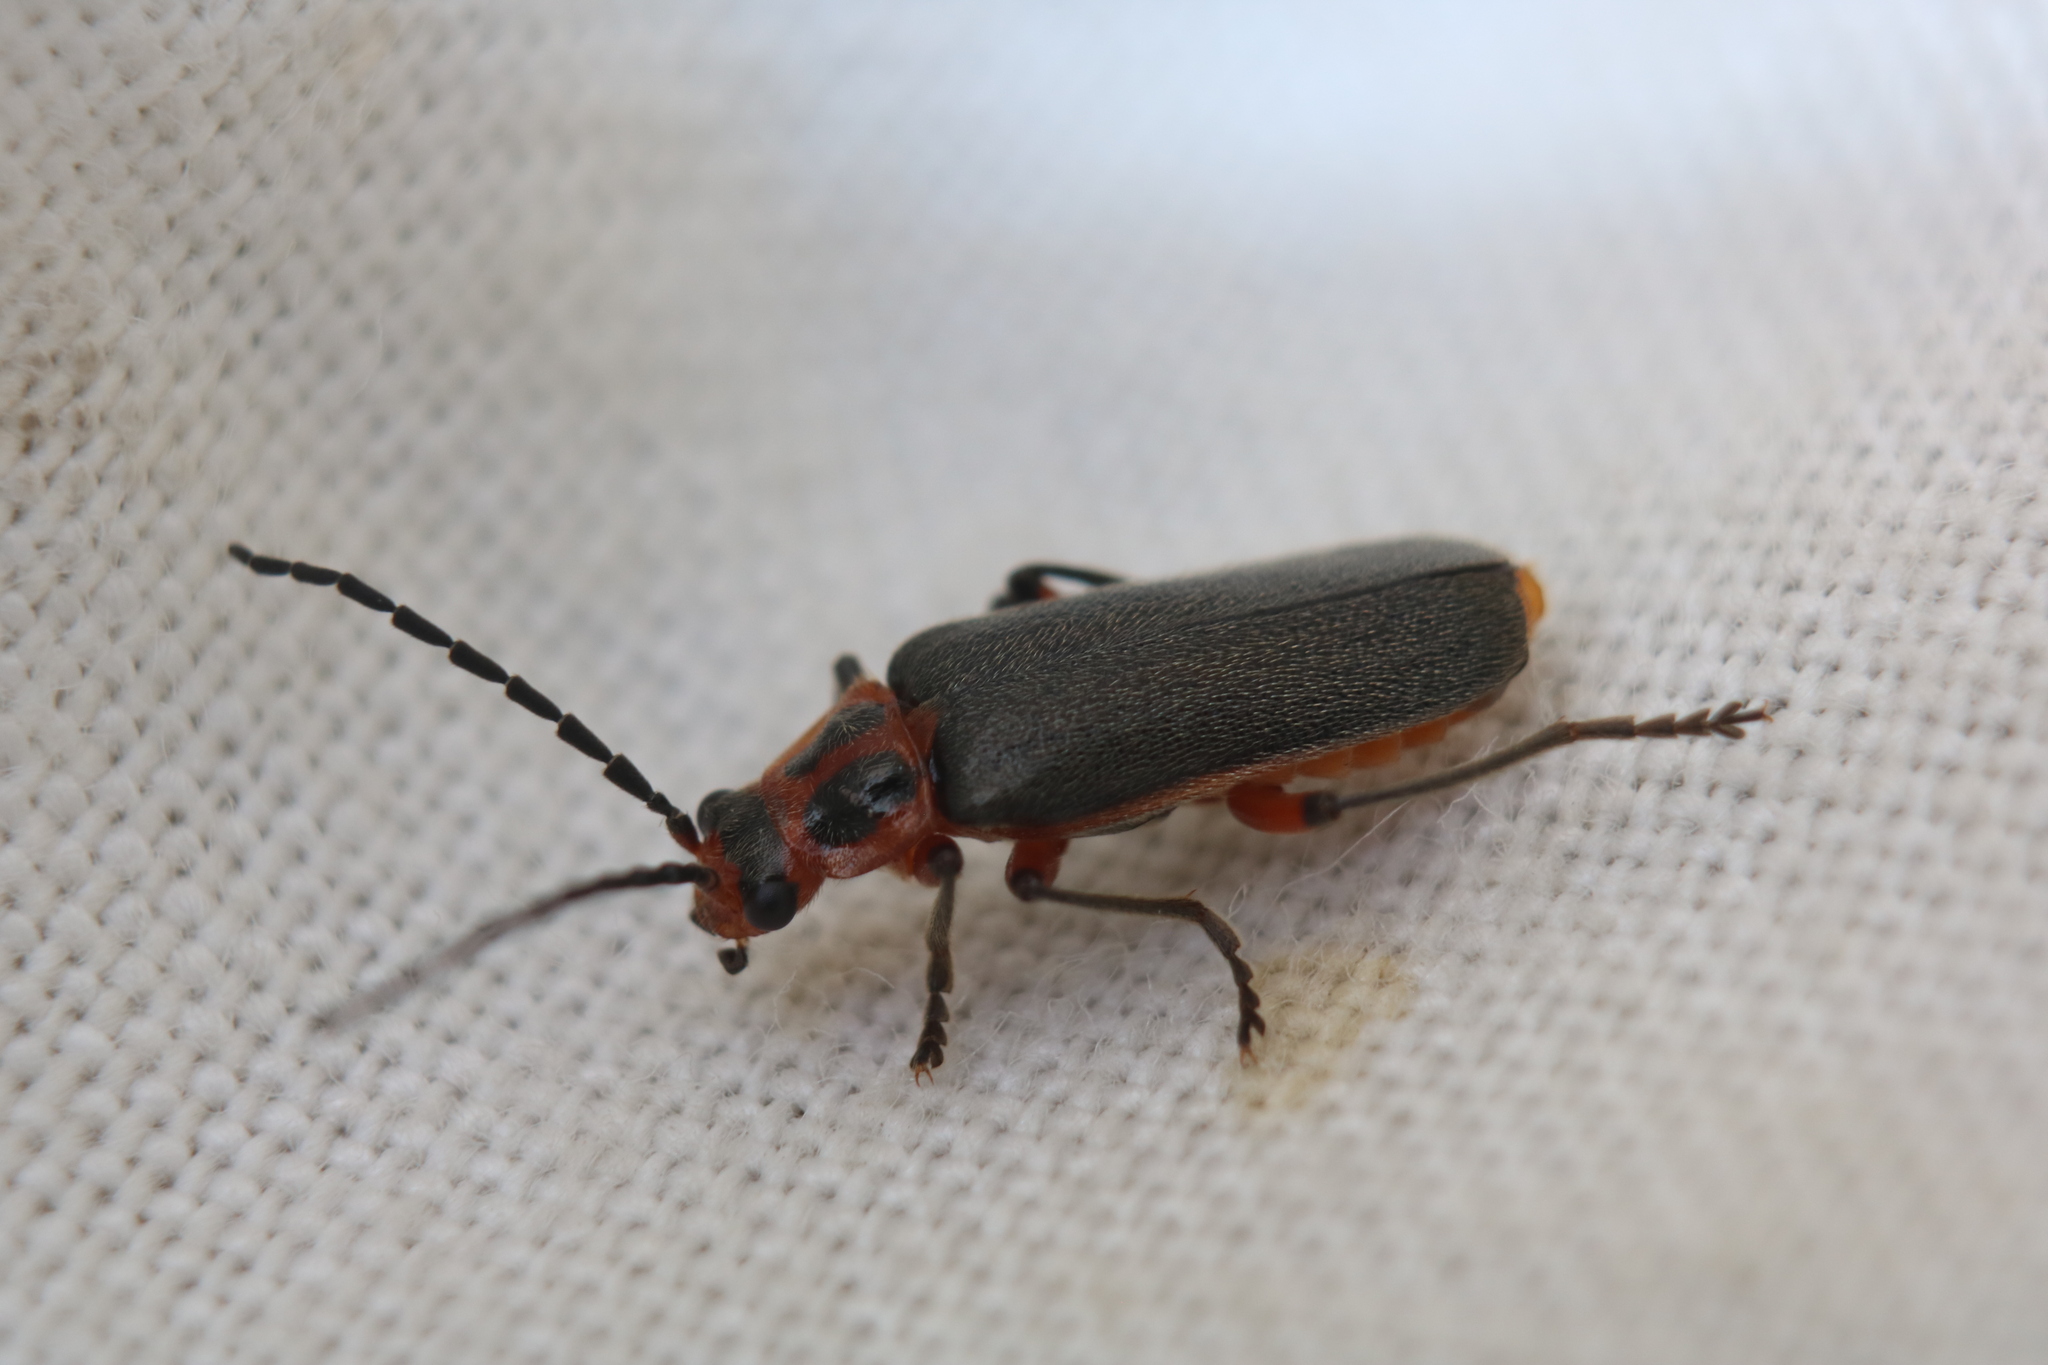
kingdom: Animalia
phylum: Arthropoda
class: Insecta
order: Coleoptera
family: Cantharidae
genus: Atalantycha
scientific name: Atalantycha bilineata
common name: Two-lined leatherwing
